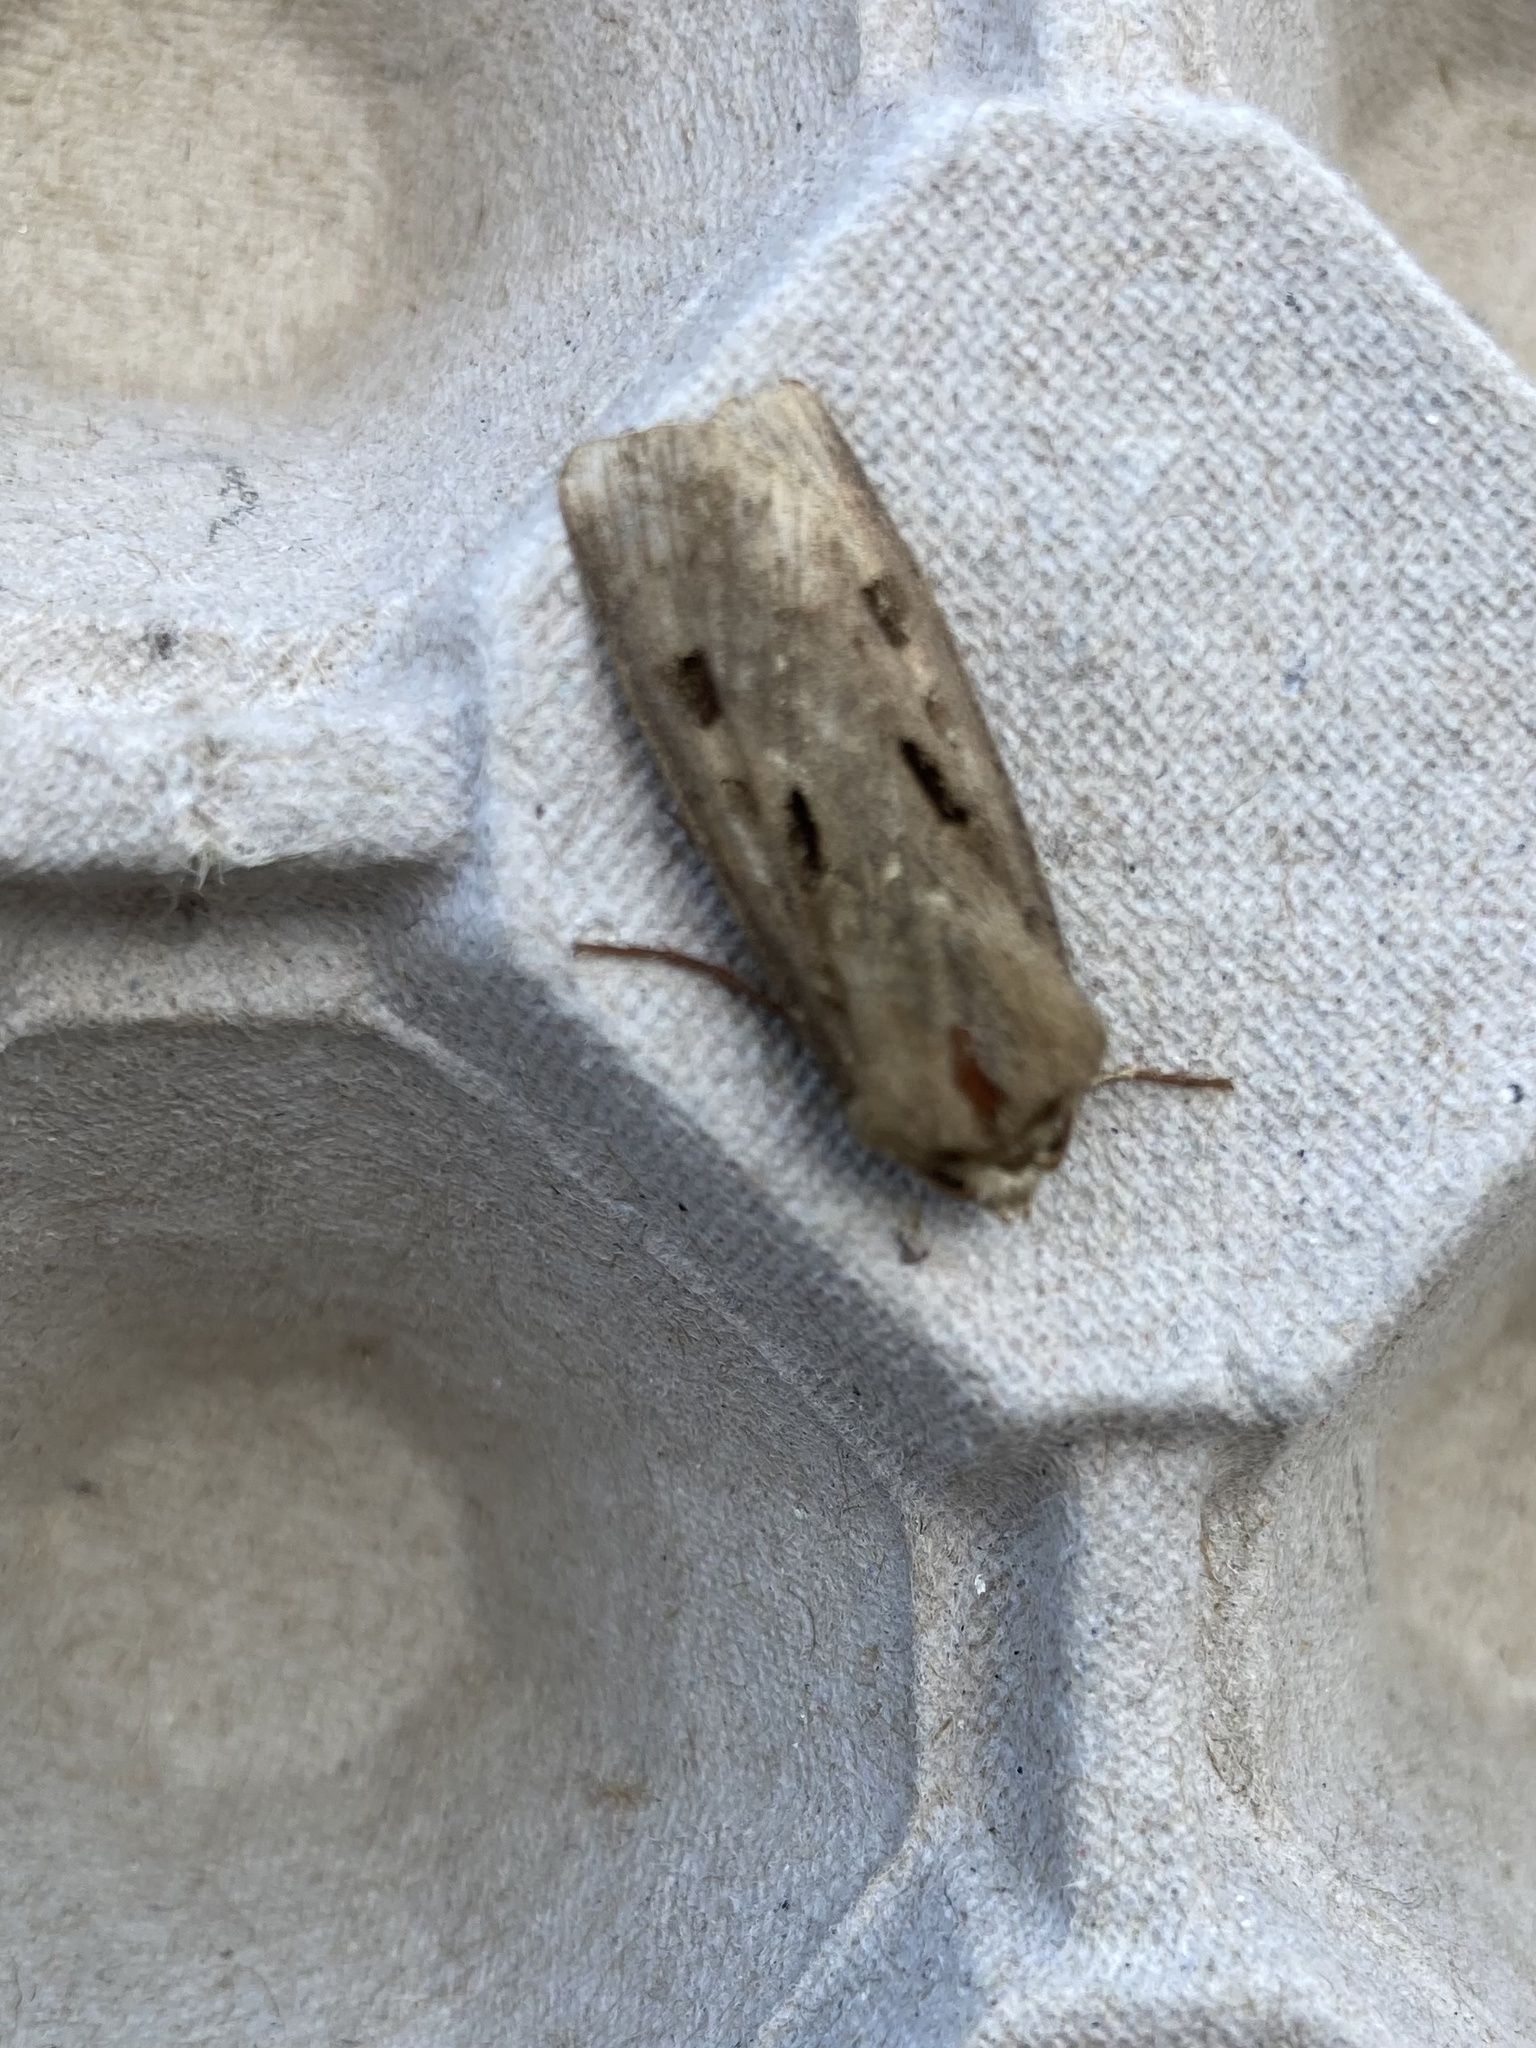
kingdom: Animalia
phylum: Arthropoda
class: Insecta
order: Lepidoptera
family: Noctuidae
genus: Agrotis
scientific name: Agrotis exclamationis
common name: Heart and dart
